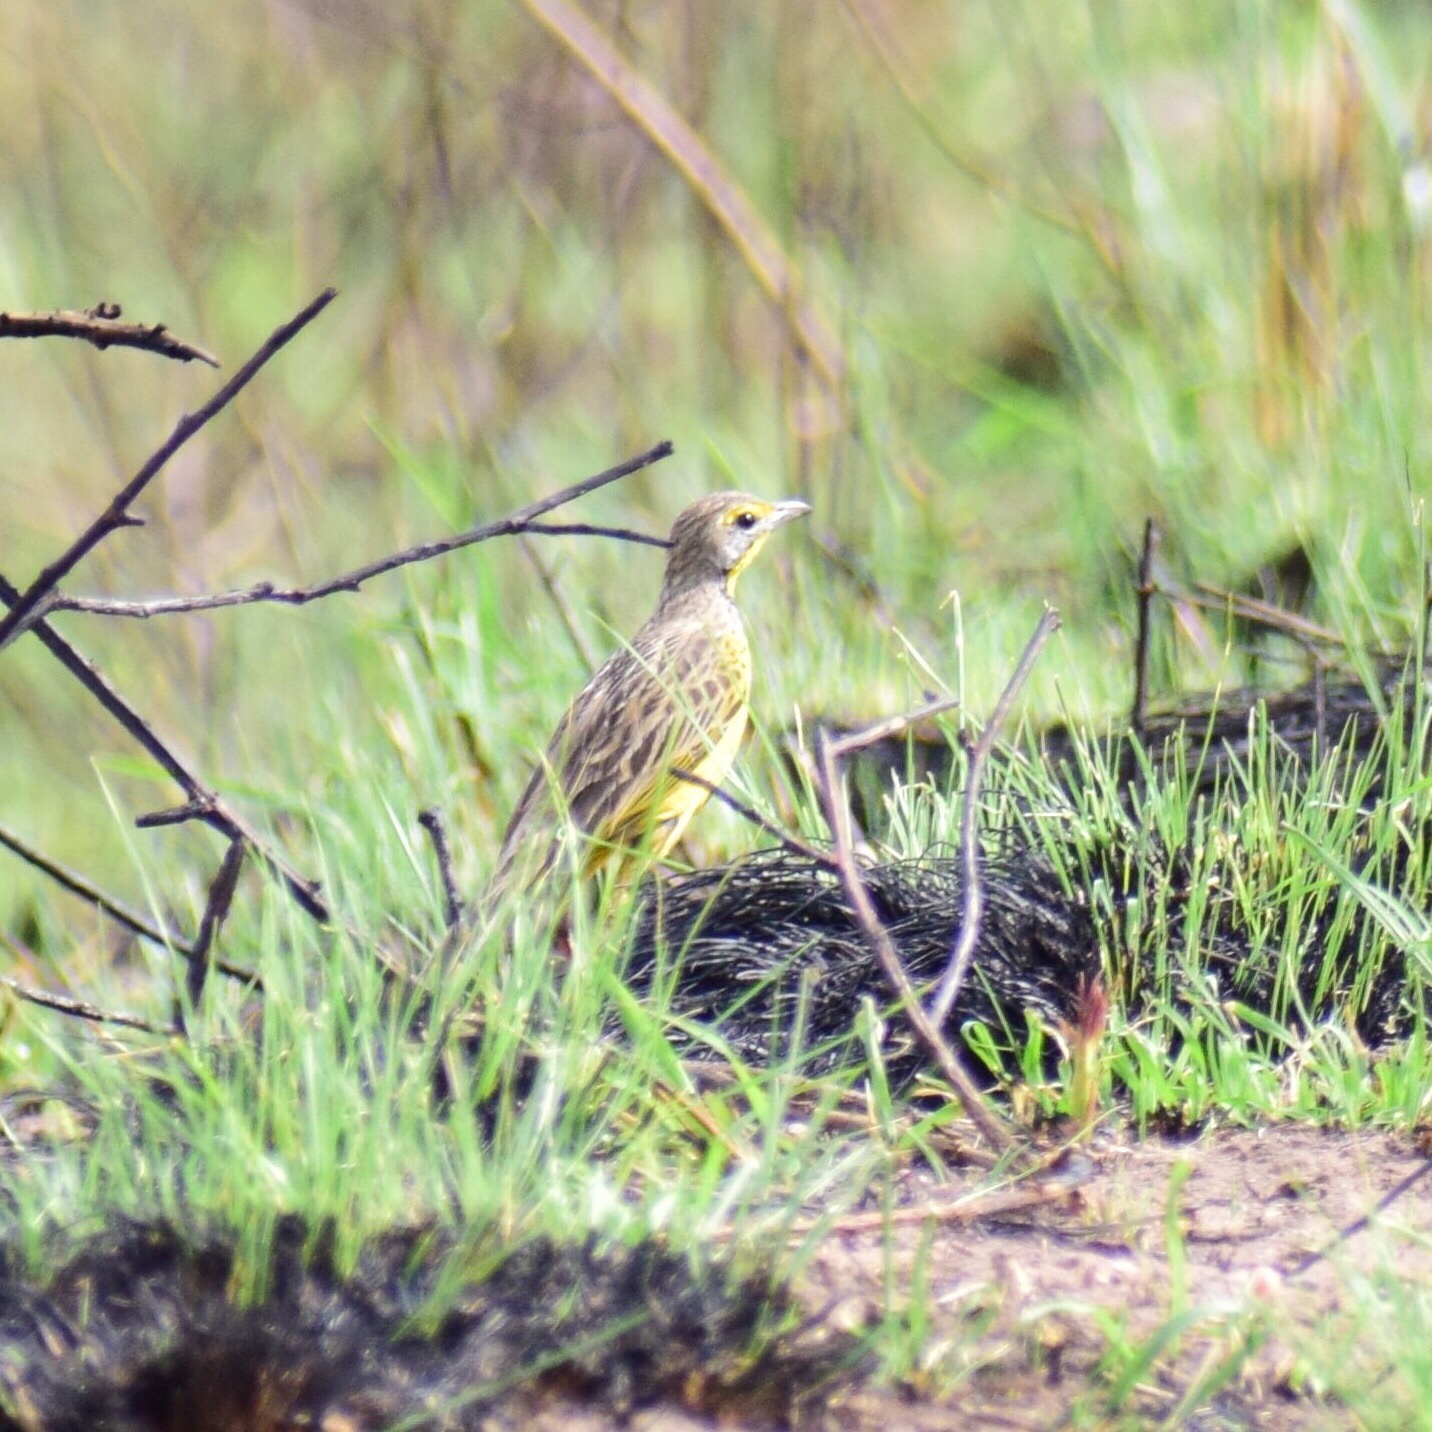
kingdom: Animalia
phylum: Chordata
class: Aves
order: Passeriformes
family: Motacillidae
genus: Macronyx
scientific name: Macronyx croceus
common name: Yellow-throated longclaw
